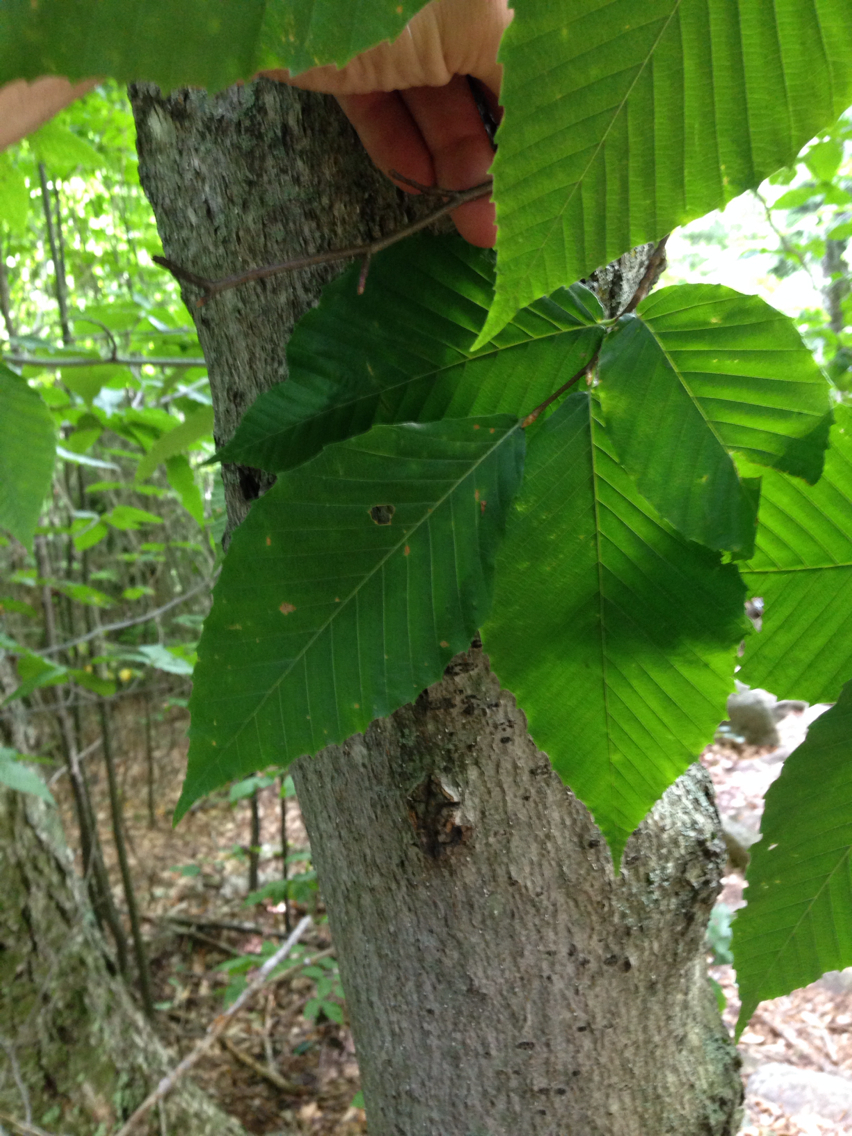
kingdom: Plantae
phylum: Tracheophyta
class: Magnoliopsida
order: Fagales
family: Fagaceae
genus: Fagus
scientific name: Fagus grandifolia
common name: American beech
